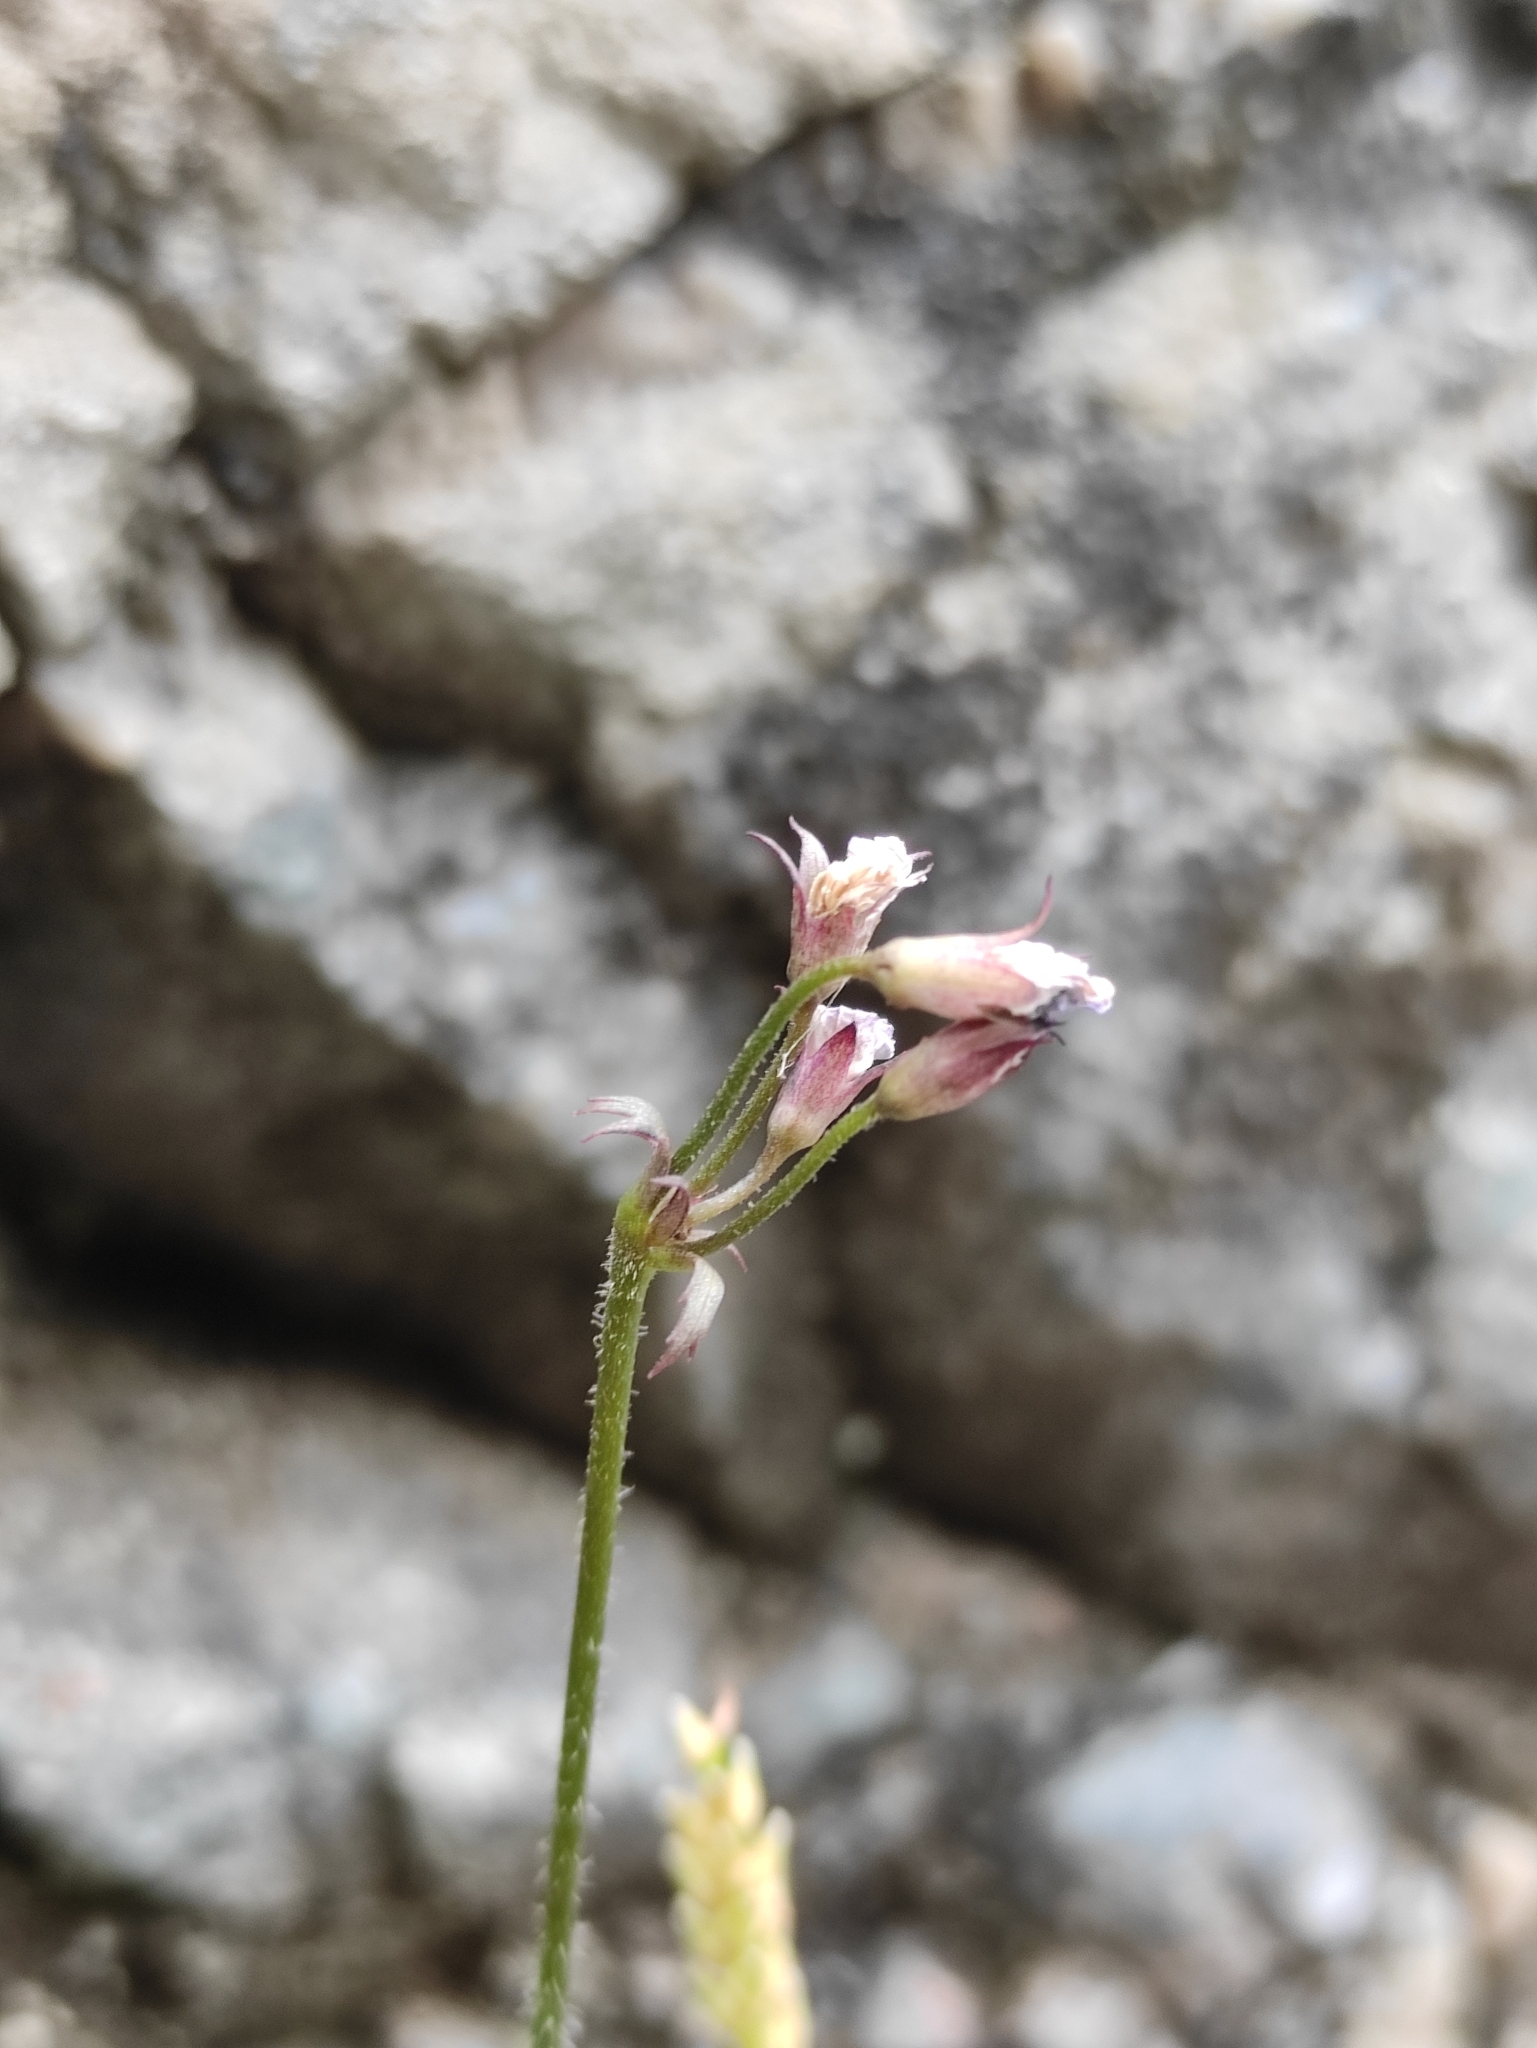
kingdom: Plantae
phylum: Tracheophyta
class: Magnoliopsida
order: Ericales
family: Primulaceae
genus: Primula
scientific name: Primula matthioli
